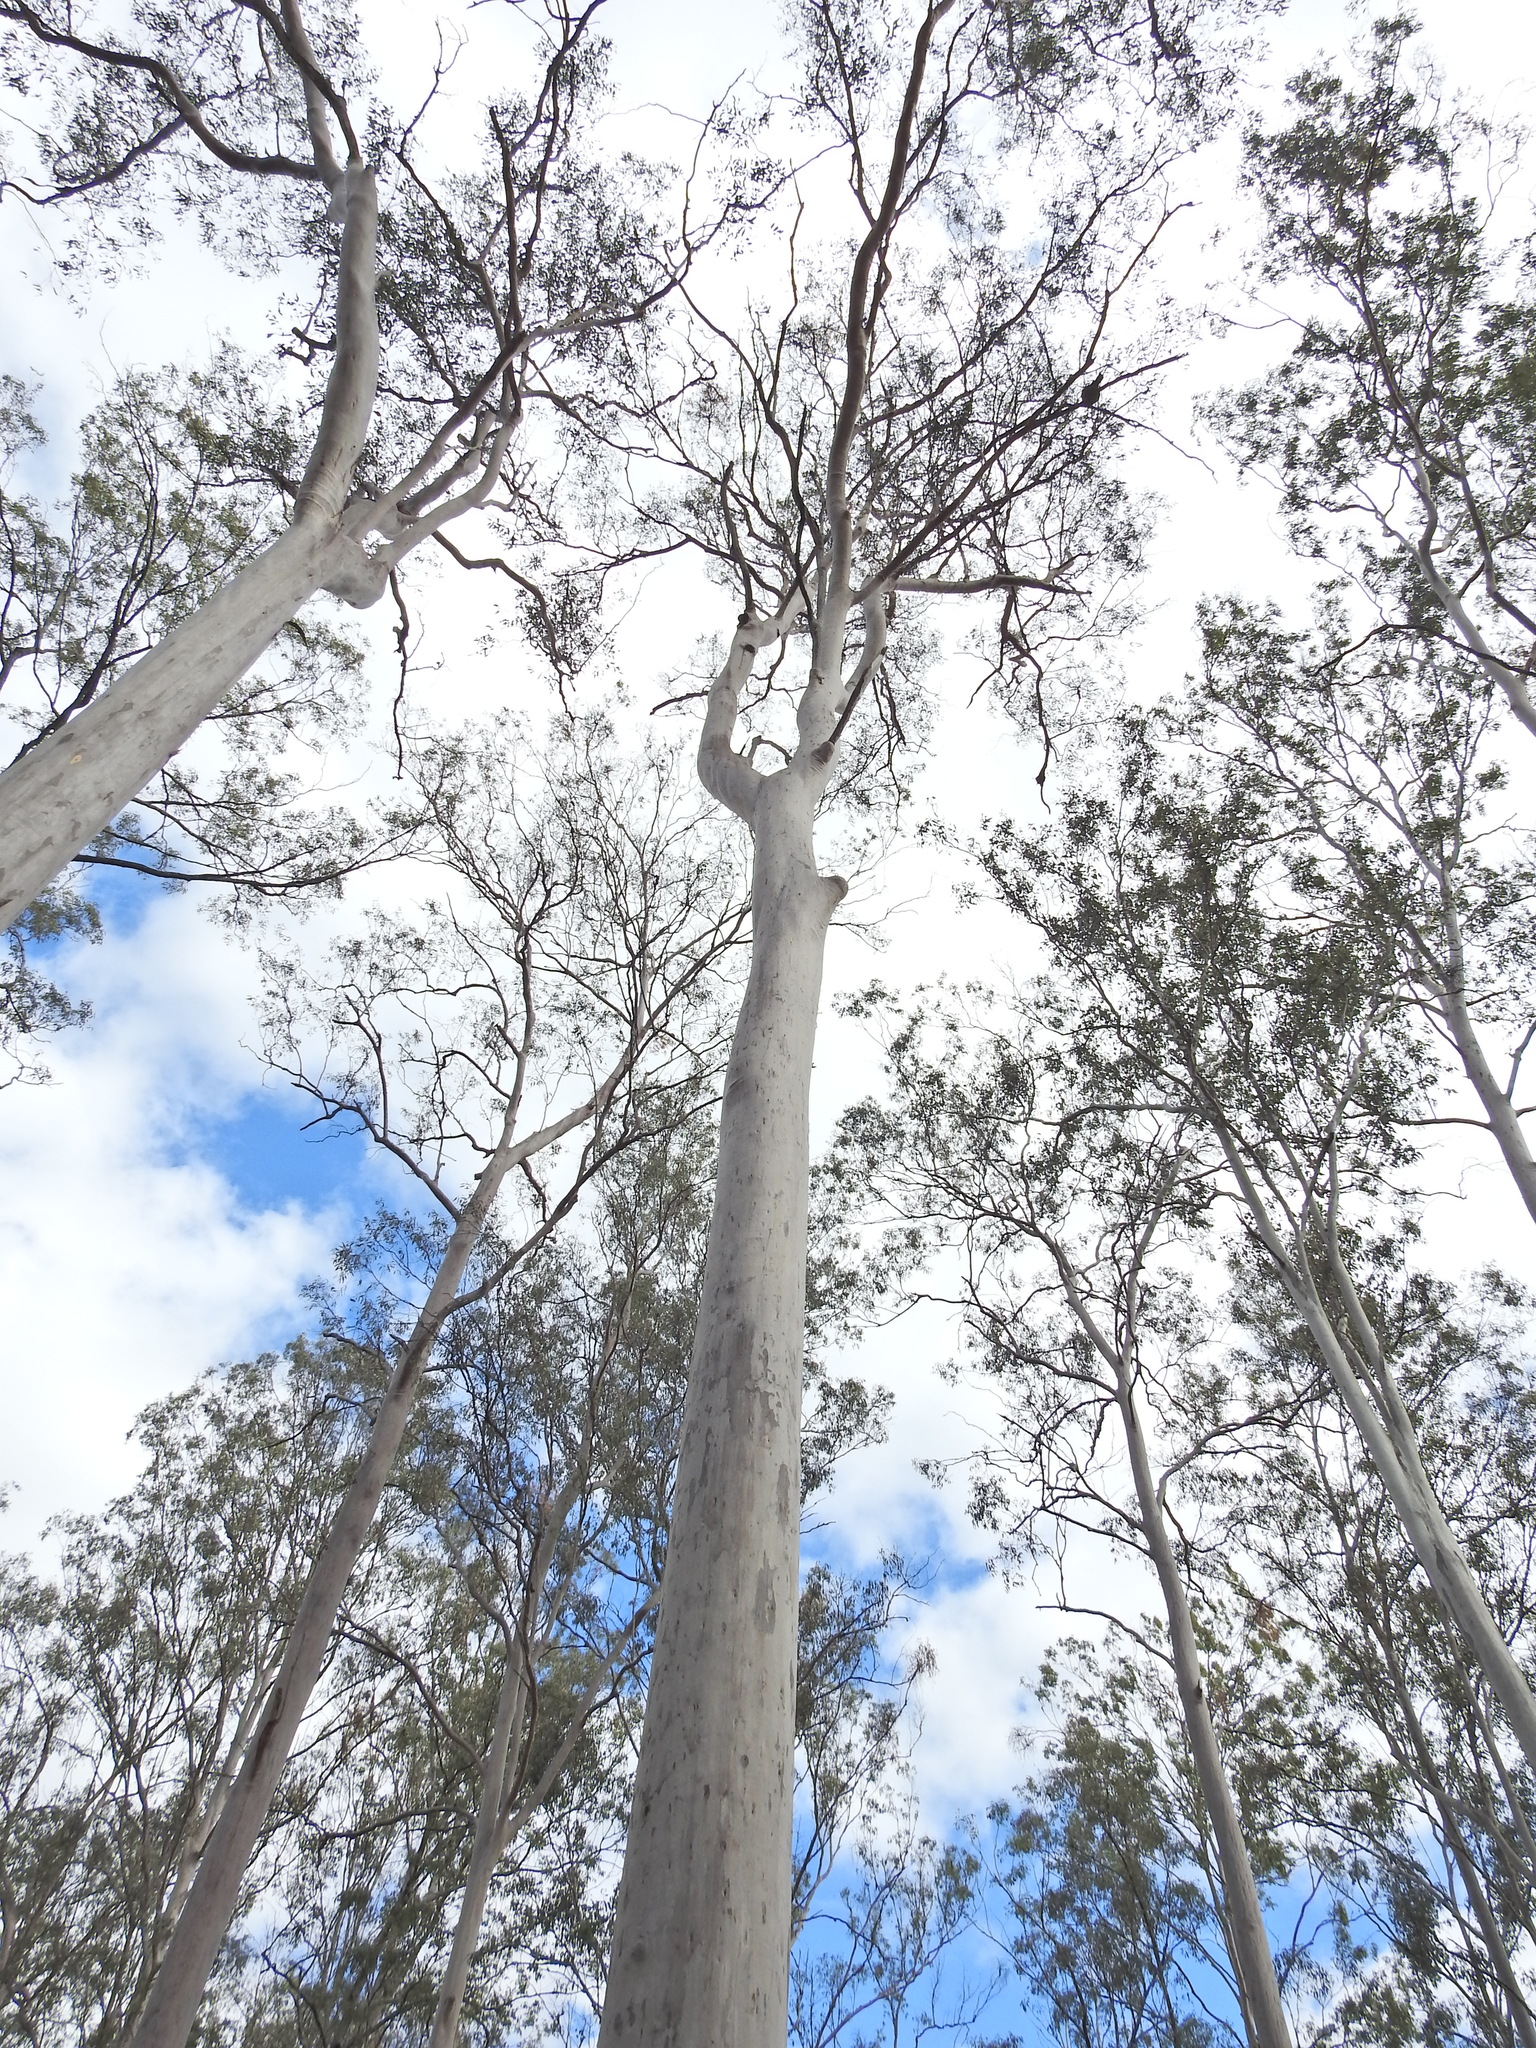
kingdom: Plantae
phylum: Tracheophyta
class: Magnoliopsida
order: Myrtales
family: Myrtaceae
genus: Corymbia
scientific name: Corymbia citriodora
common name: Lemonscented gum
